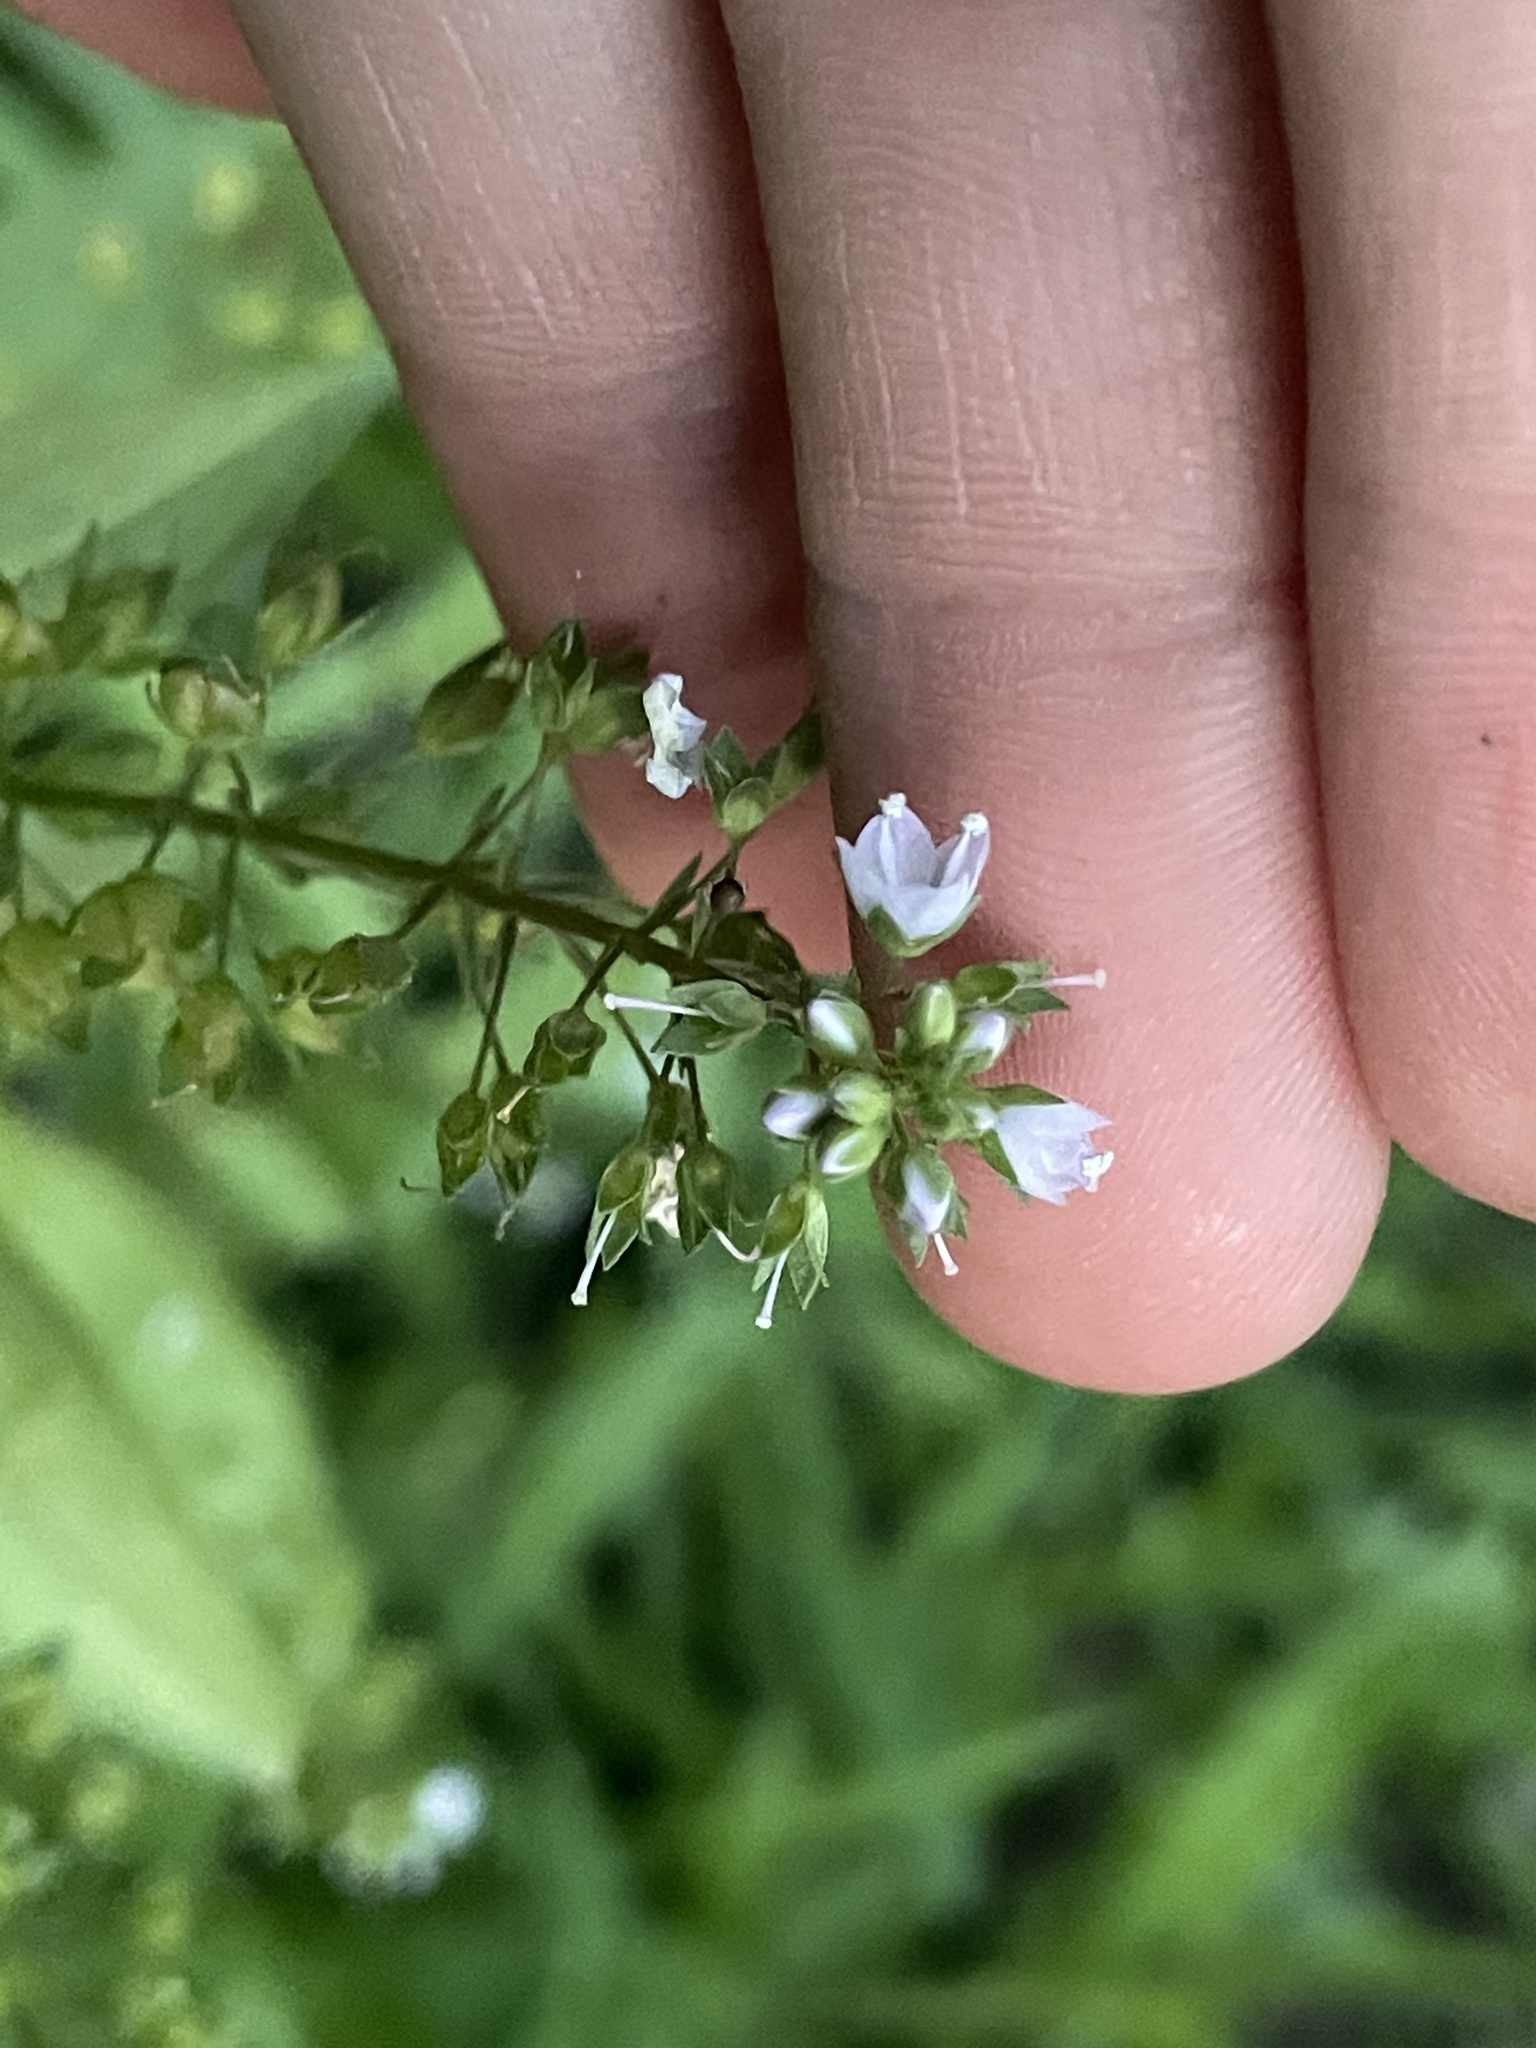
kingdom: Plantae
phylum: Tracheophyta
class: Magnoliopsida
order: Lamiales
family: Plantaginaceae
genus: Veronica
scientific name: Veronica anagallis-aquatica
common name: Water speedwell
